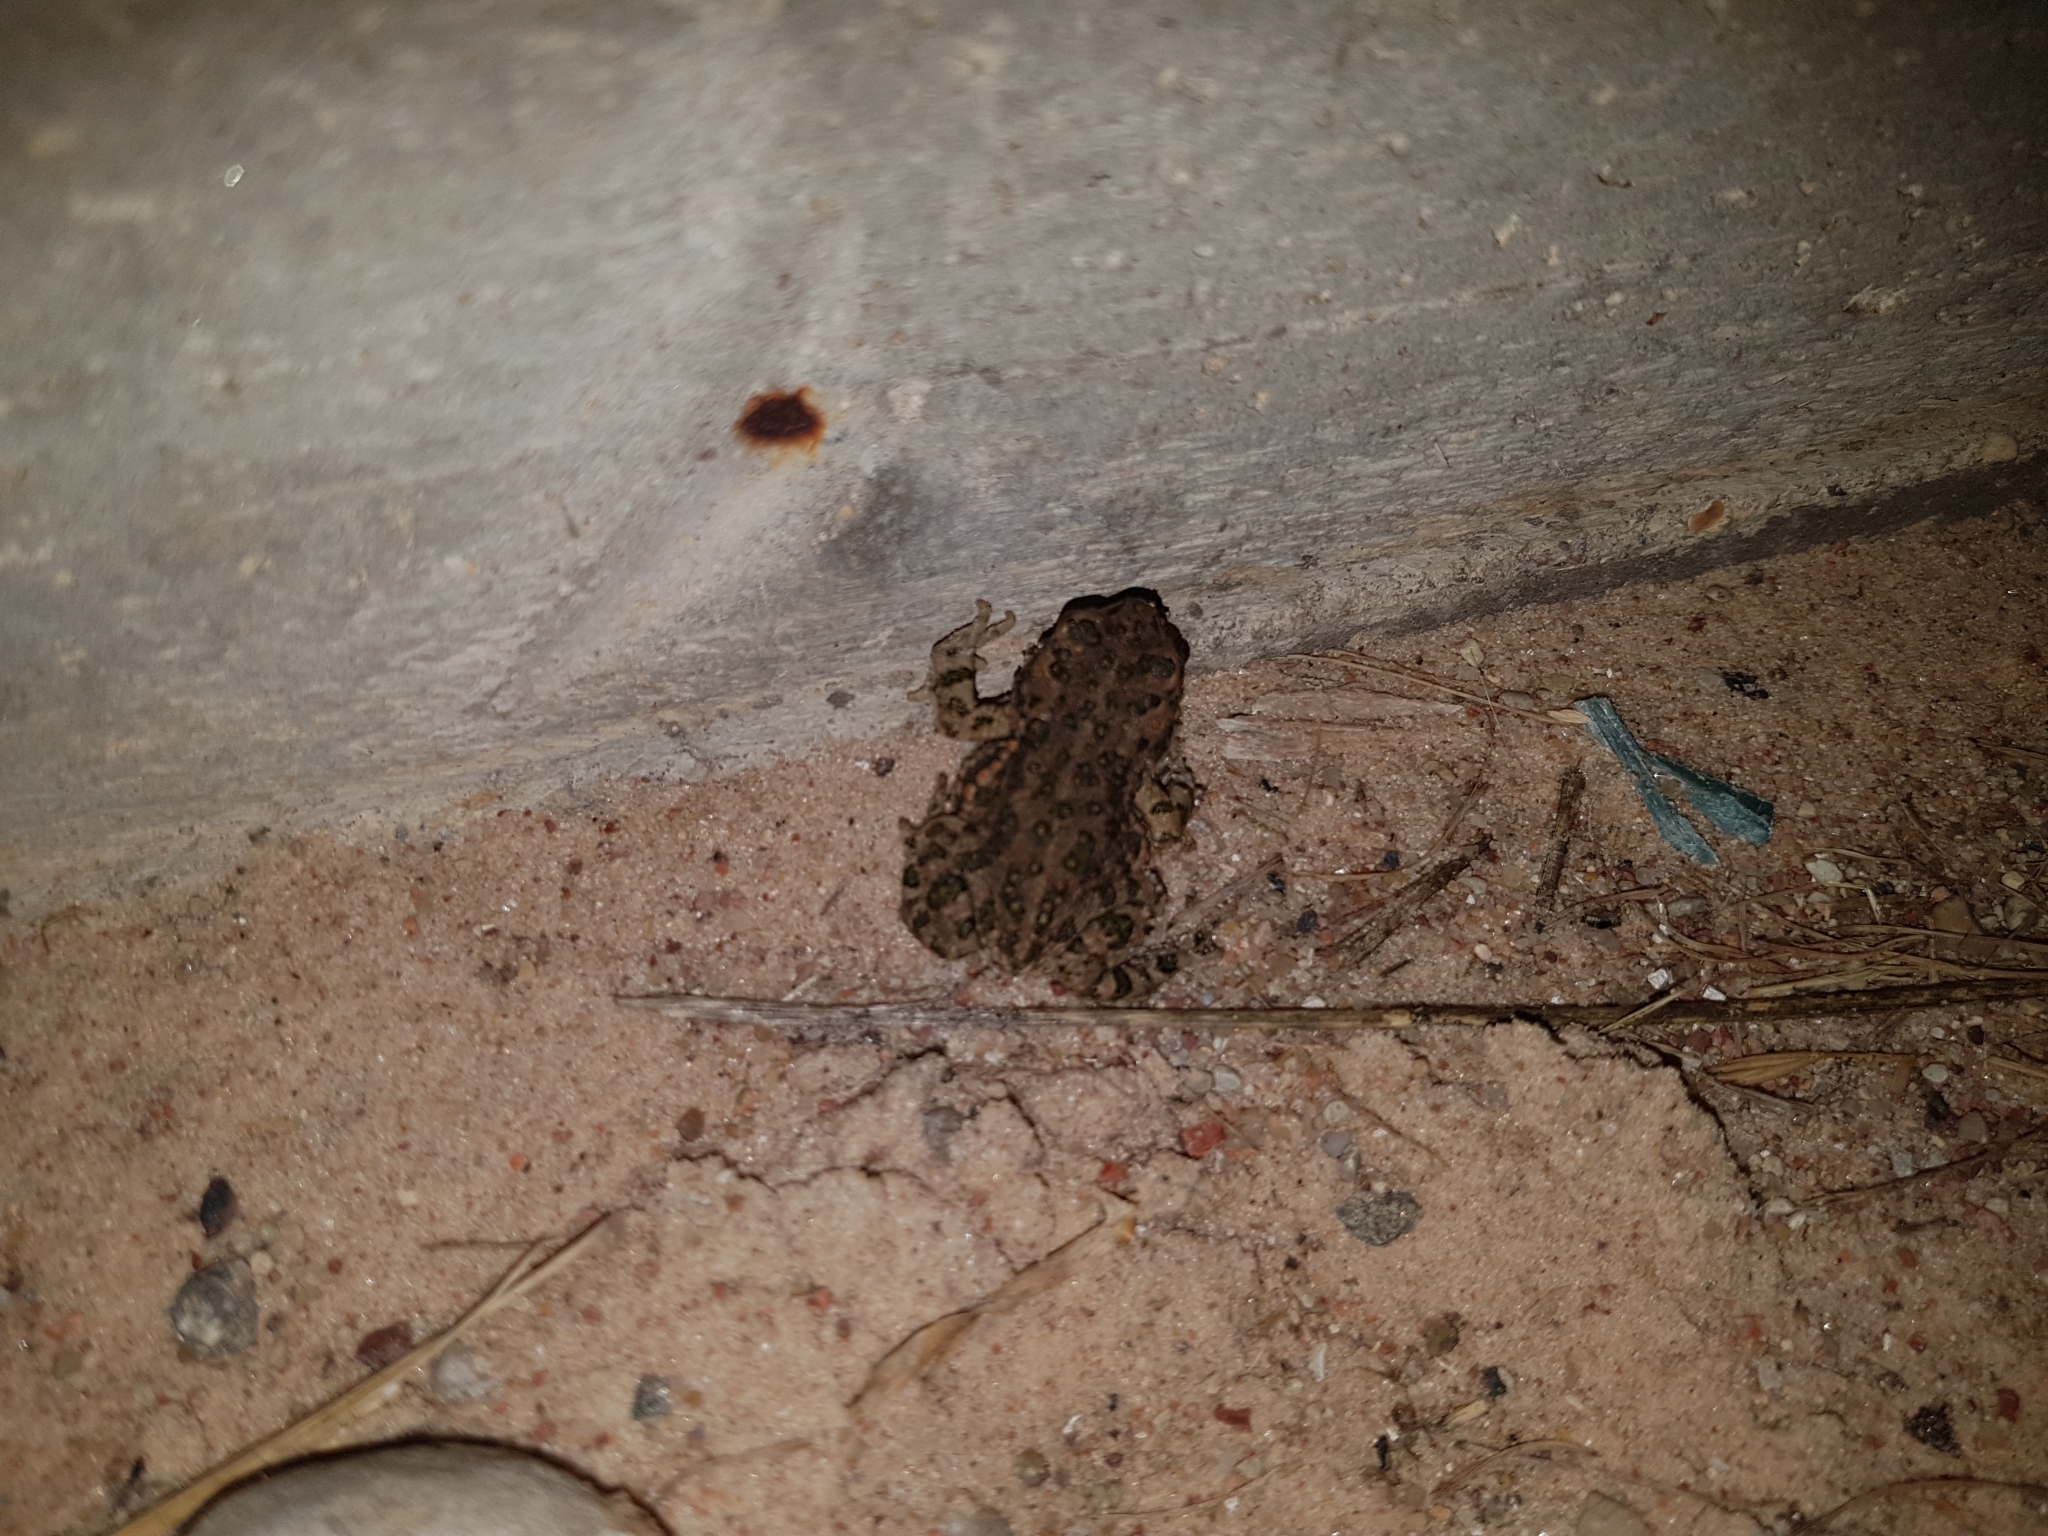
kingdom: Animalia
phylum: Chordata
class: Amphibia
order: Anura
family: Bufonidae
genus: Bufotes
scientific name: Bufotes viridis
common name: European green toad
